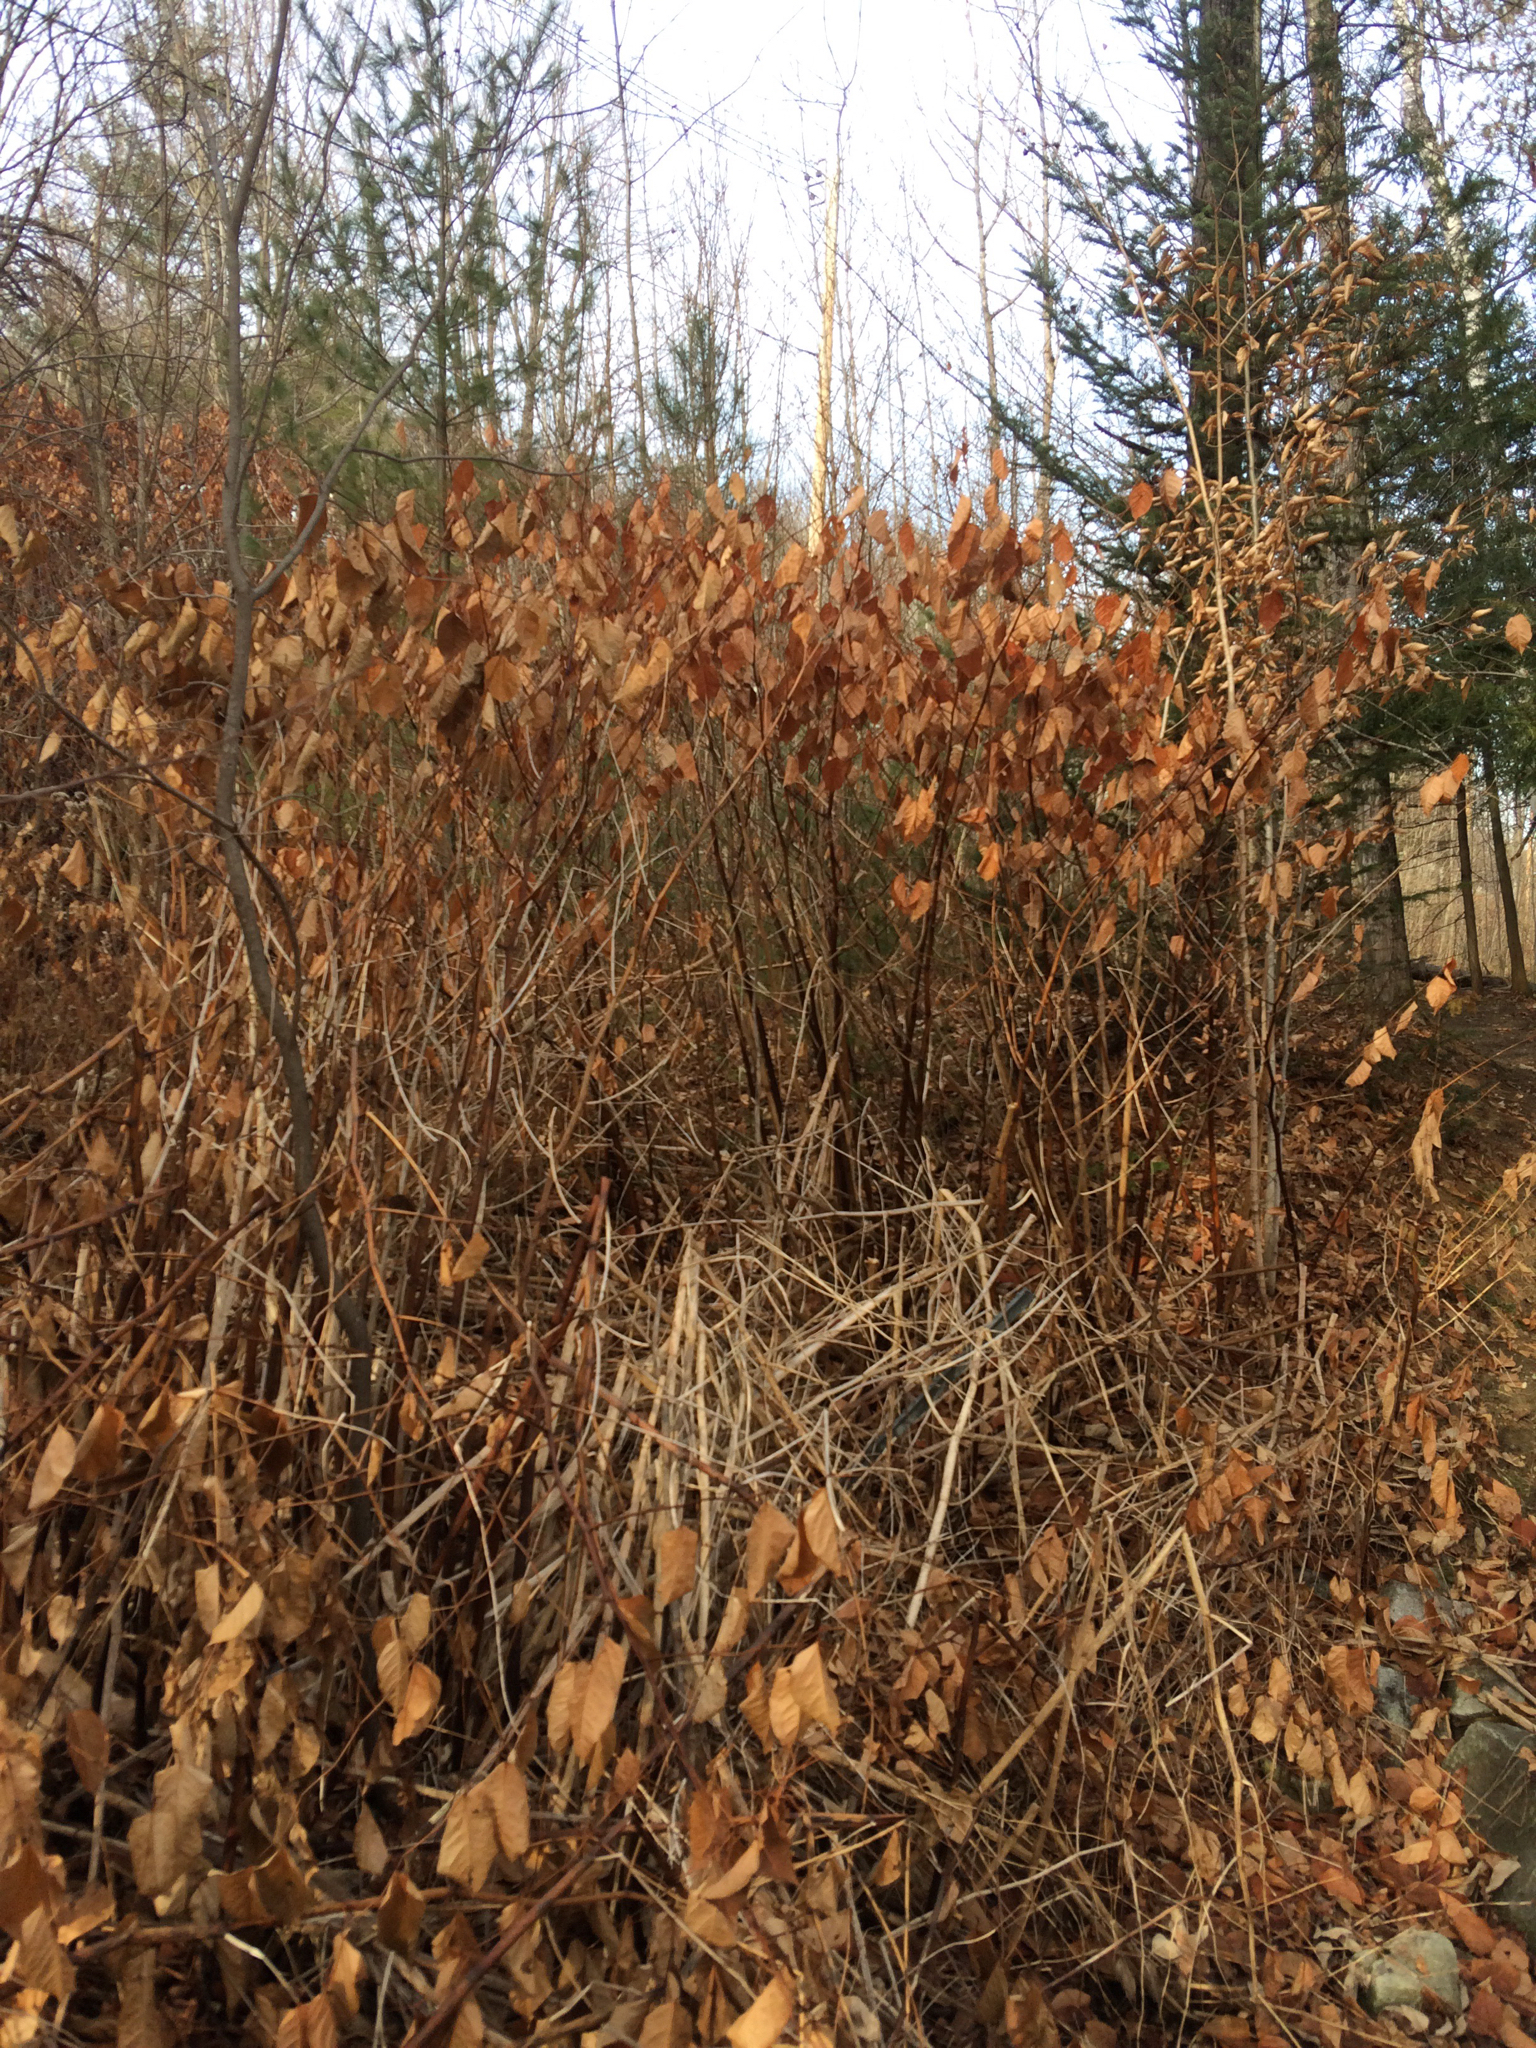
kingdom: Plantae
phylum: Tracheophyta
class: Magnoliopsida
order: Caryophyllales
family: Polygonaceae
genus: Reynoutria
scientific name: Reynoutria japonica
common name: Japanese knotweed
